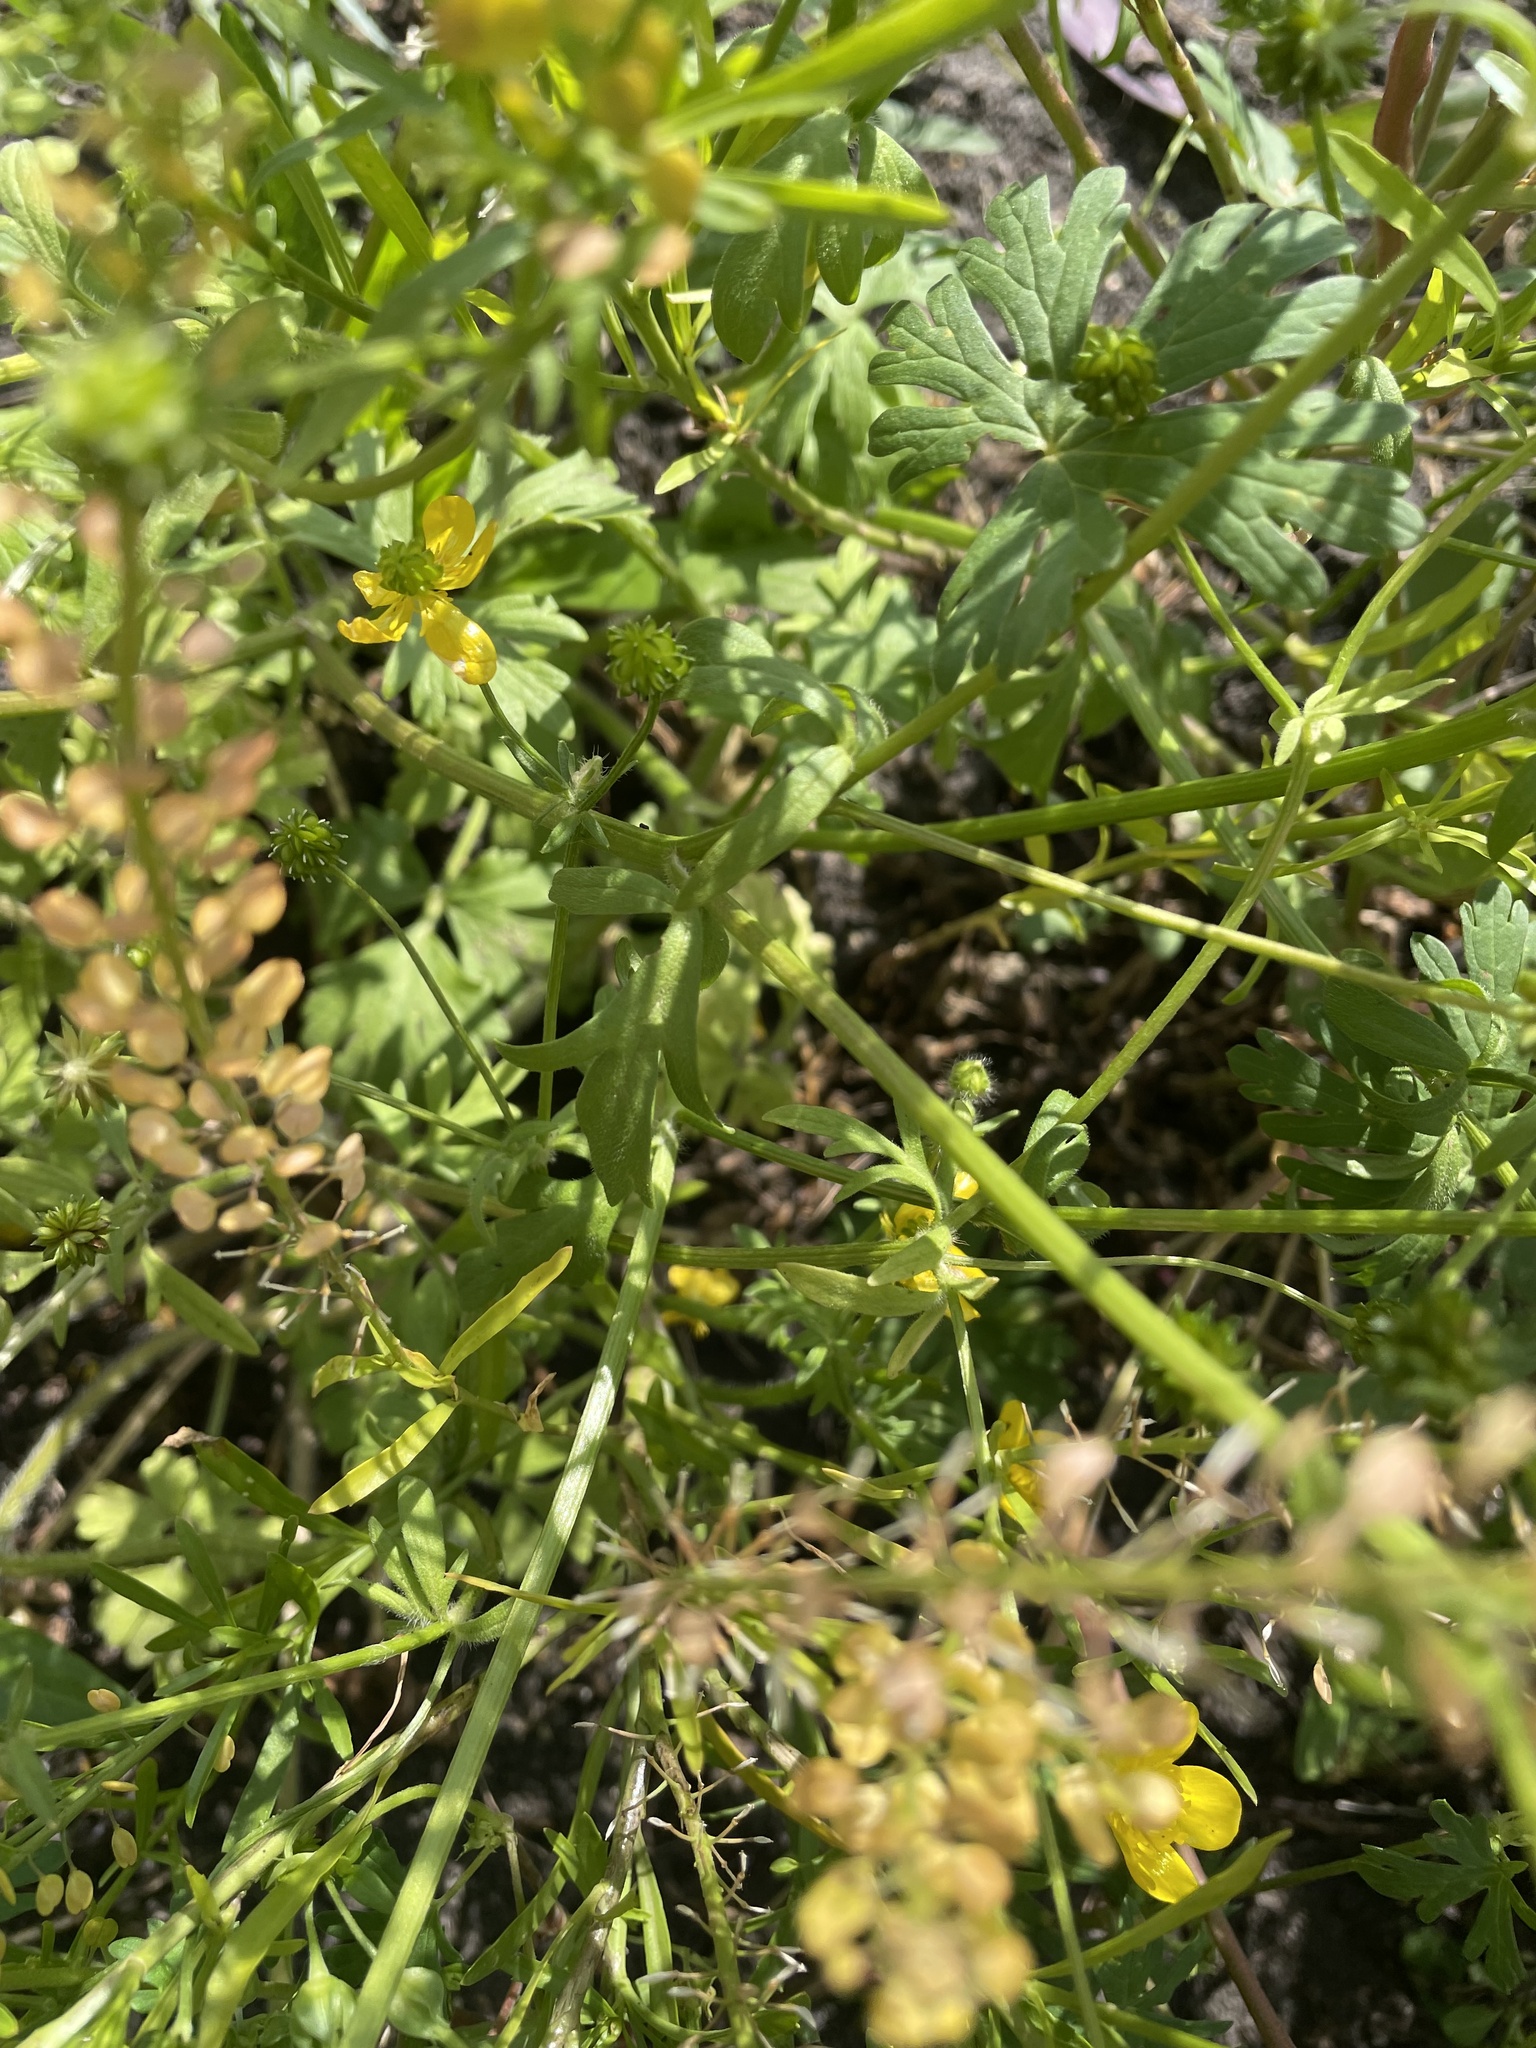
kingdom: Plantae
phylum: Tracheophyta
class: Magnoliopsida
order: Brassicales
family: Brassicaceae
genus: Lepidium
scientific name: Lepidium virginicum
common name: Least pepperwort
